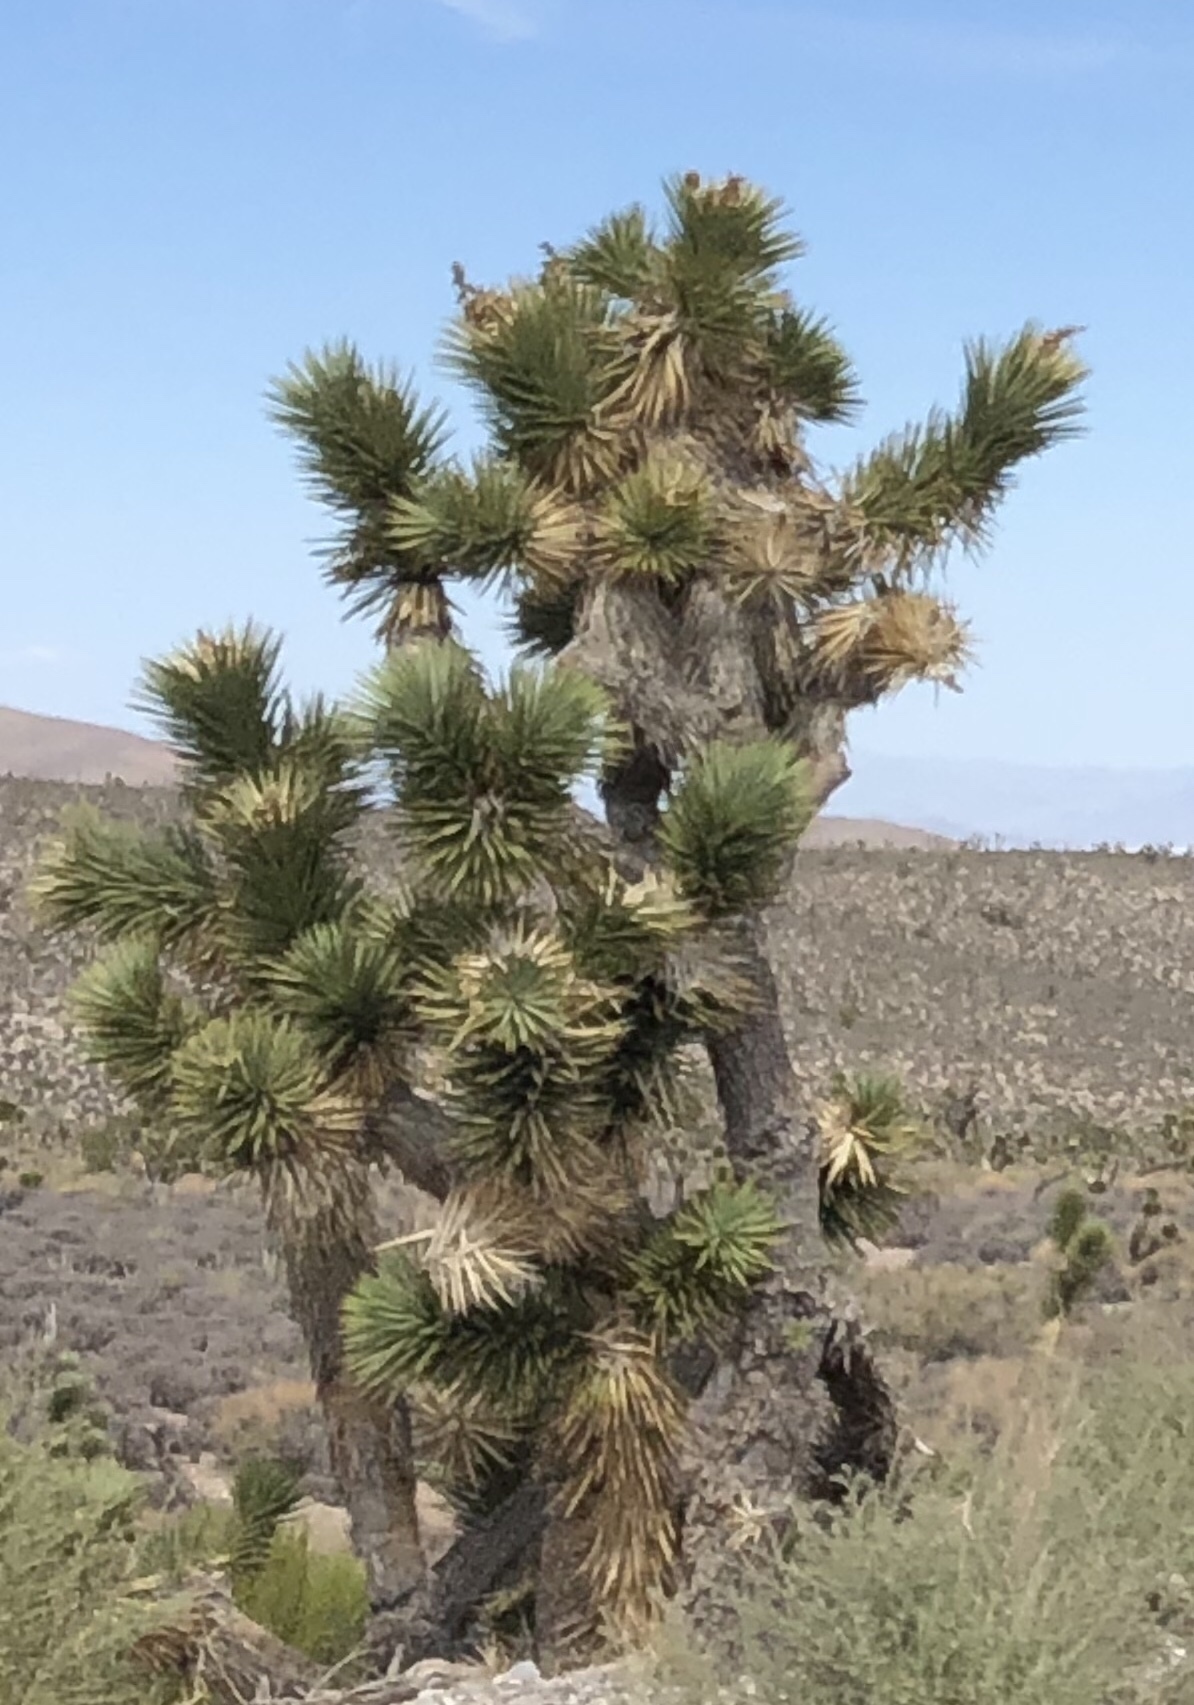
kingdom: Plantae
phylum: Tracheophyta
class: Liliopsida
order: Asparagales
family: Asparagaceae
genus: Yucca
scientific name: Yucca brevifolia
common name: Joshua tree
